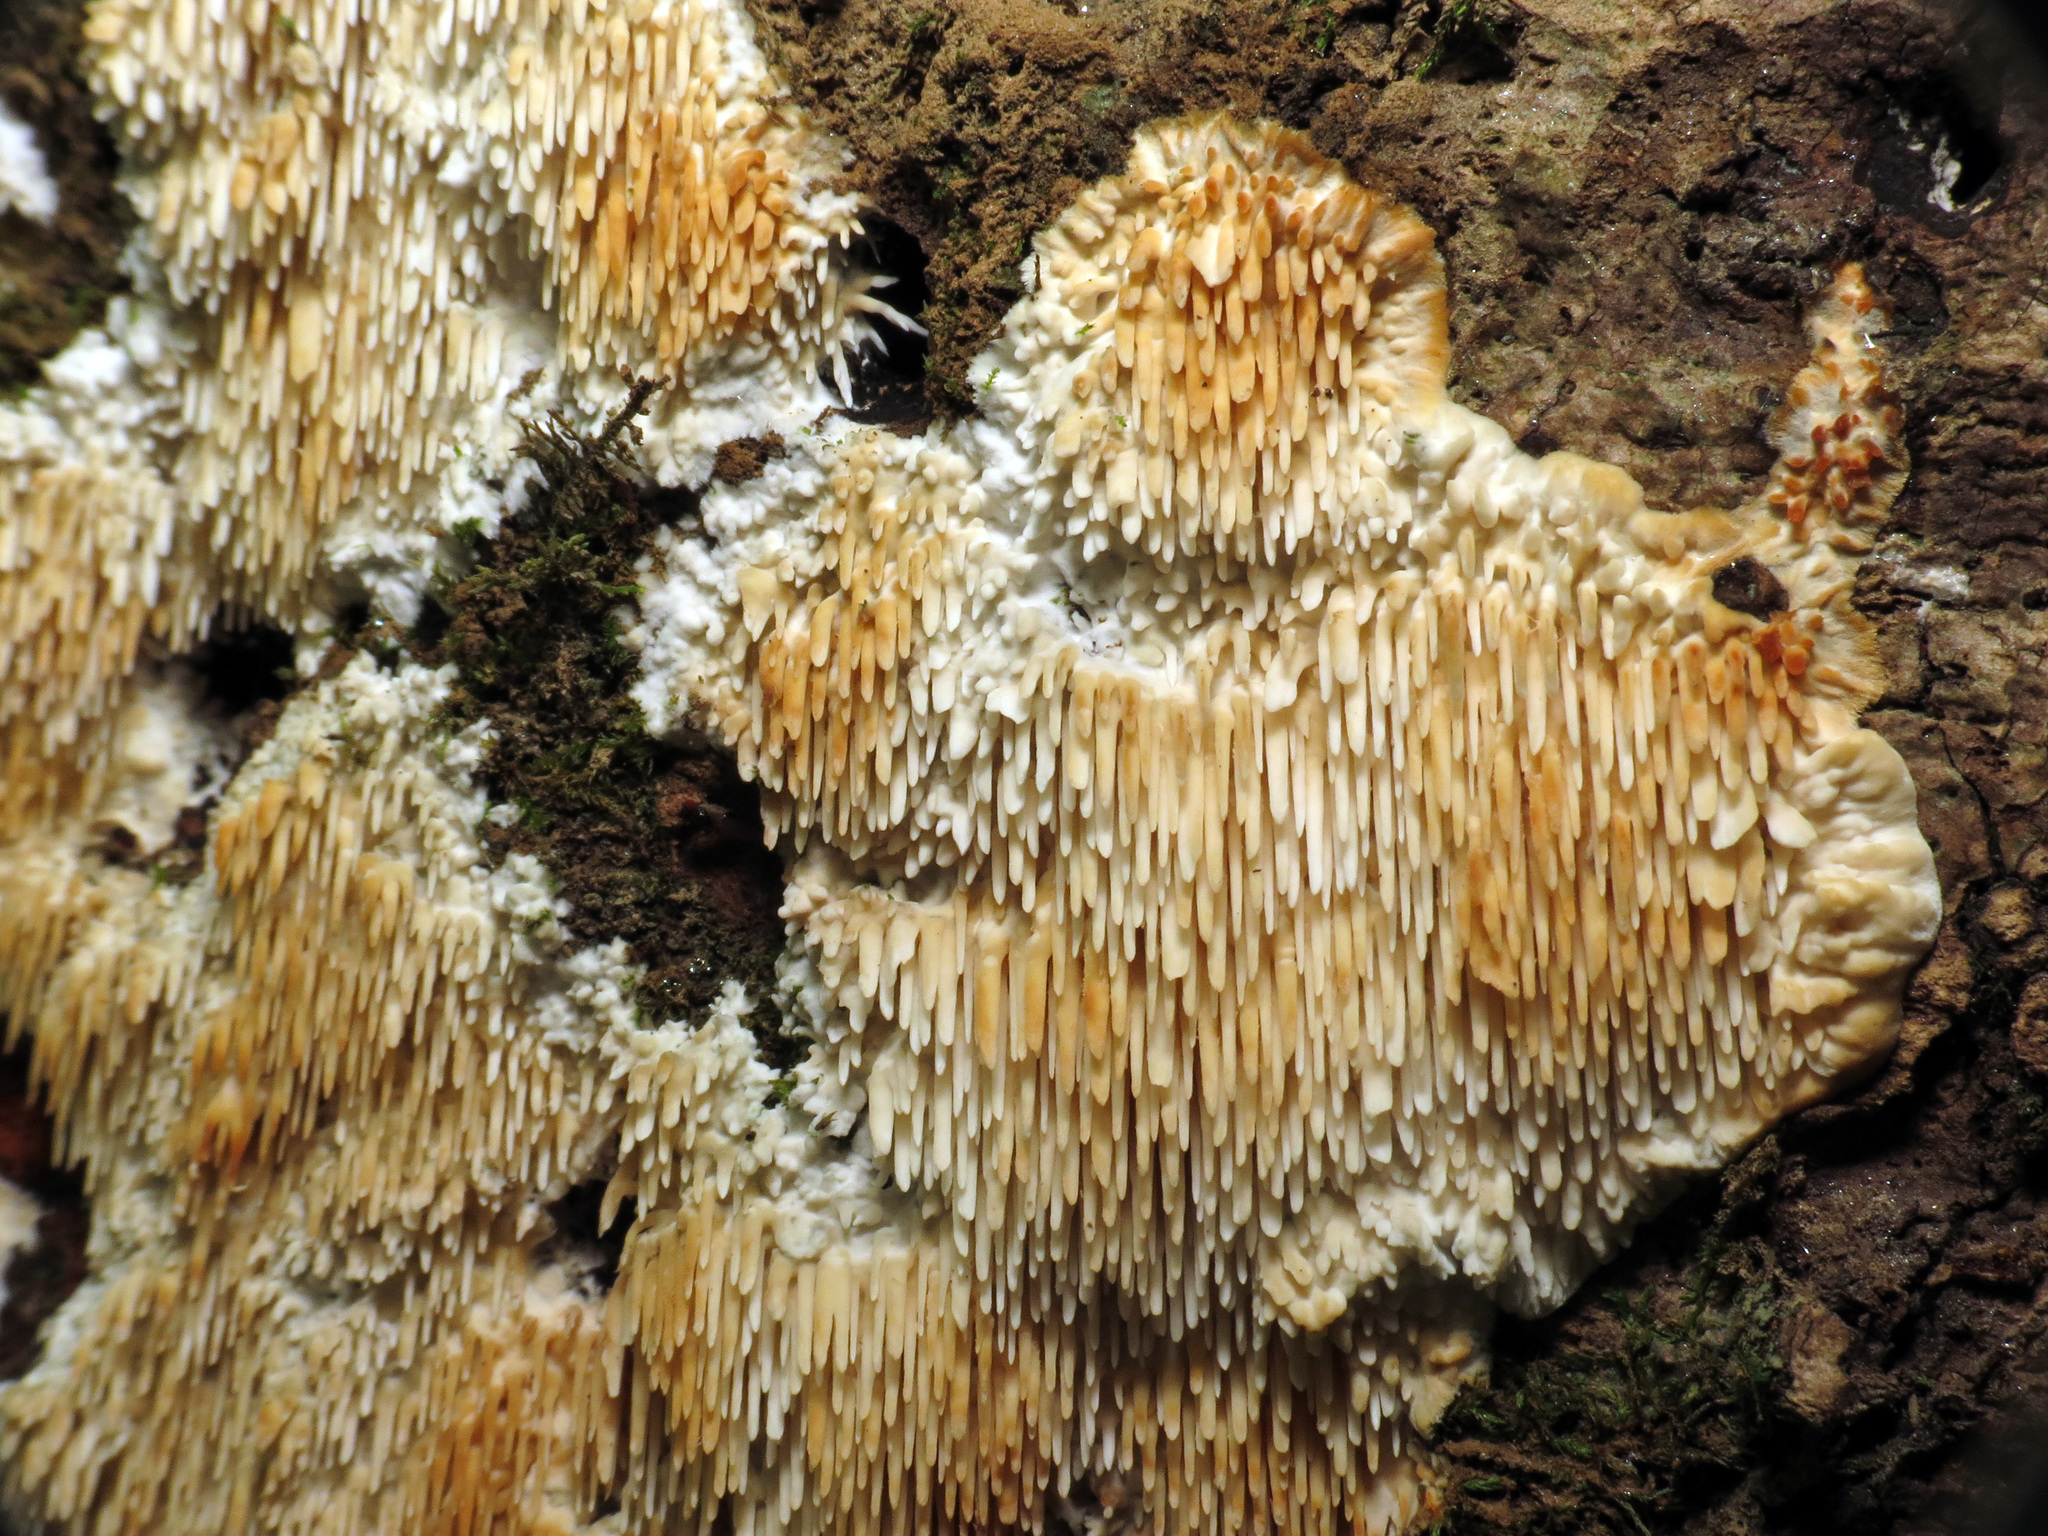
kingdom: Fungi
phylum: Basidiomycota
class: Agaricomycetes
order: Agaricales
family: Radulomycetaceae
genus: Radulomyces
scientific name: Radulomyces copelandii
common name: Asian beauty
